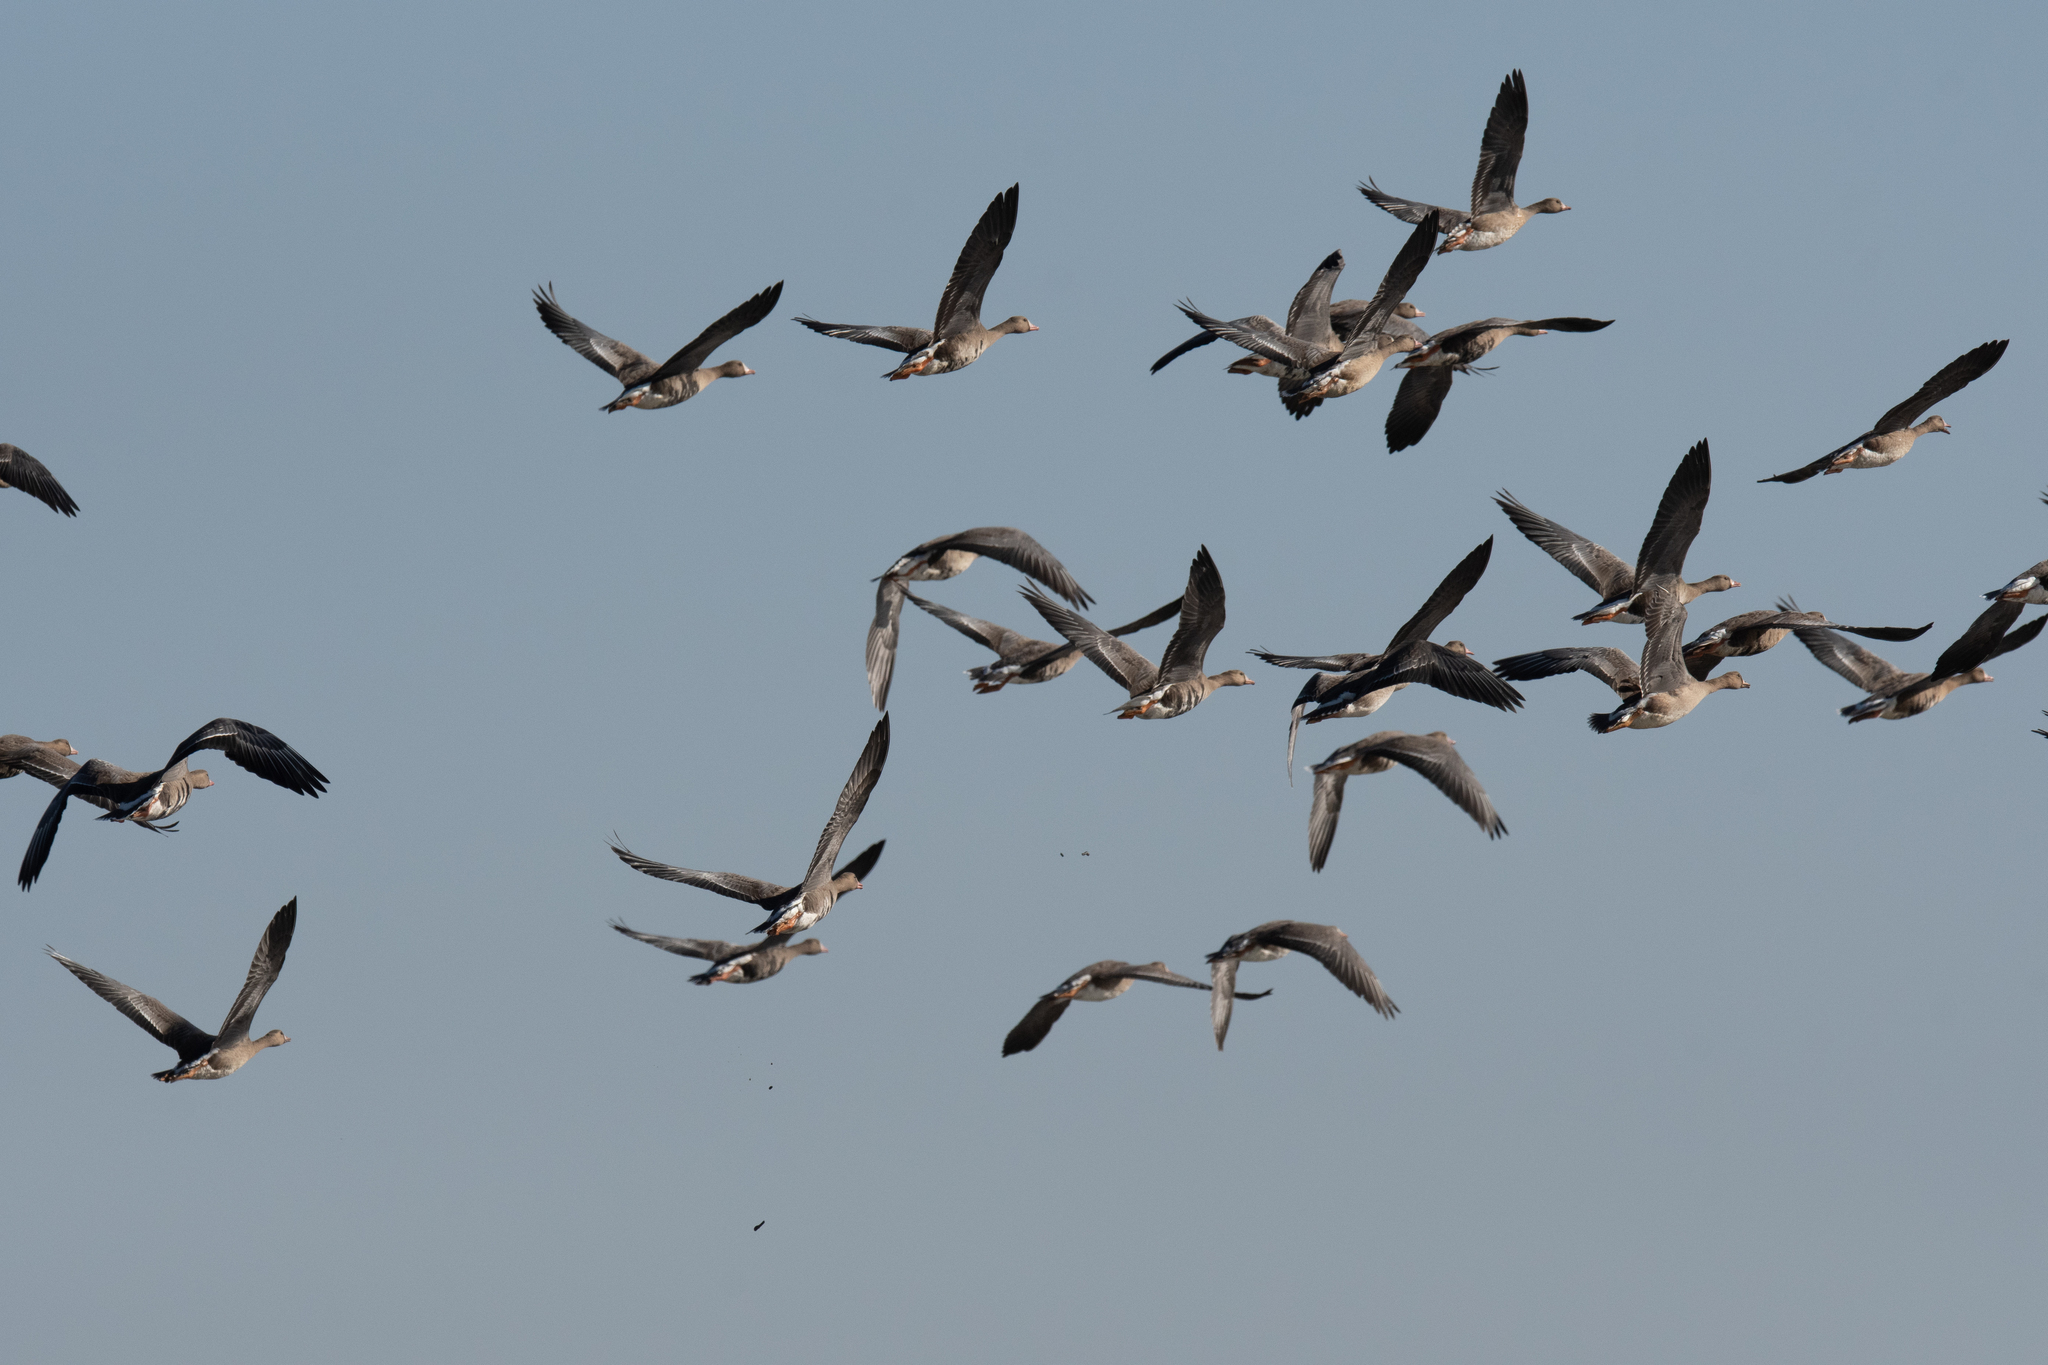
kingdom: Animalia
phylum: Chordata
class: Aves
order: Anseriformes
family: Anatidae
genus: Anser
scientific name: Anser albifrons
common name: Greater white-fronted goose
